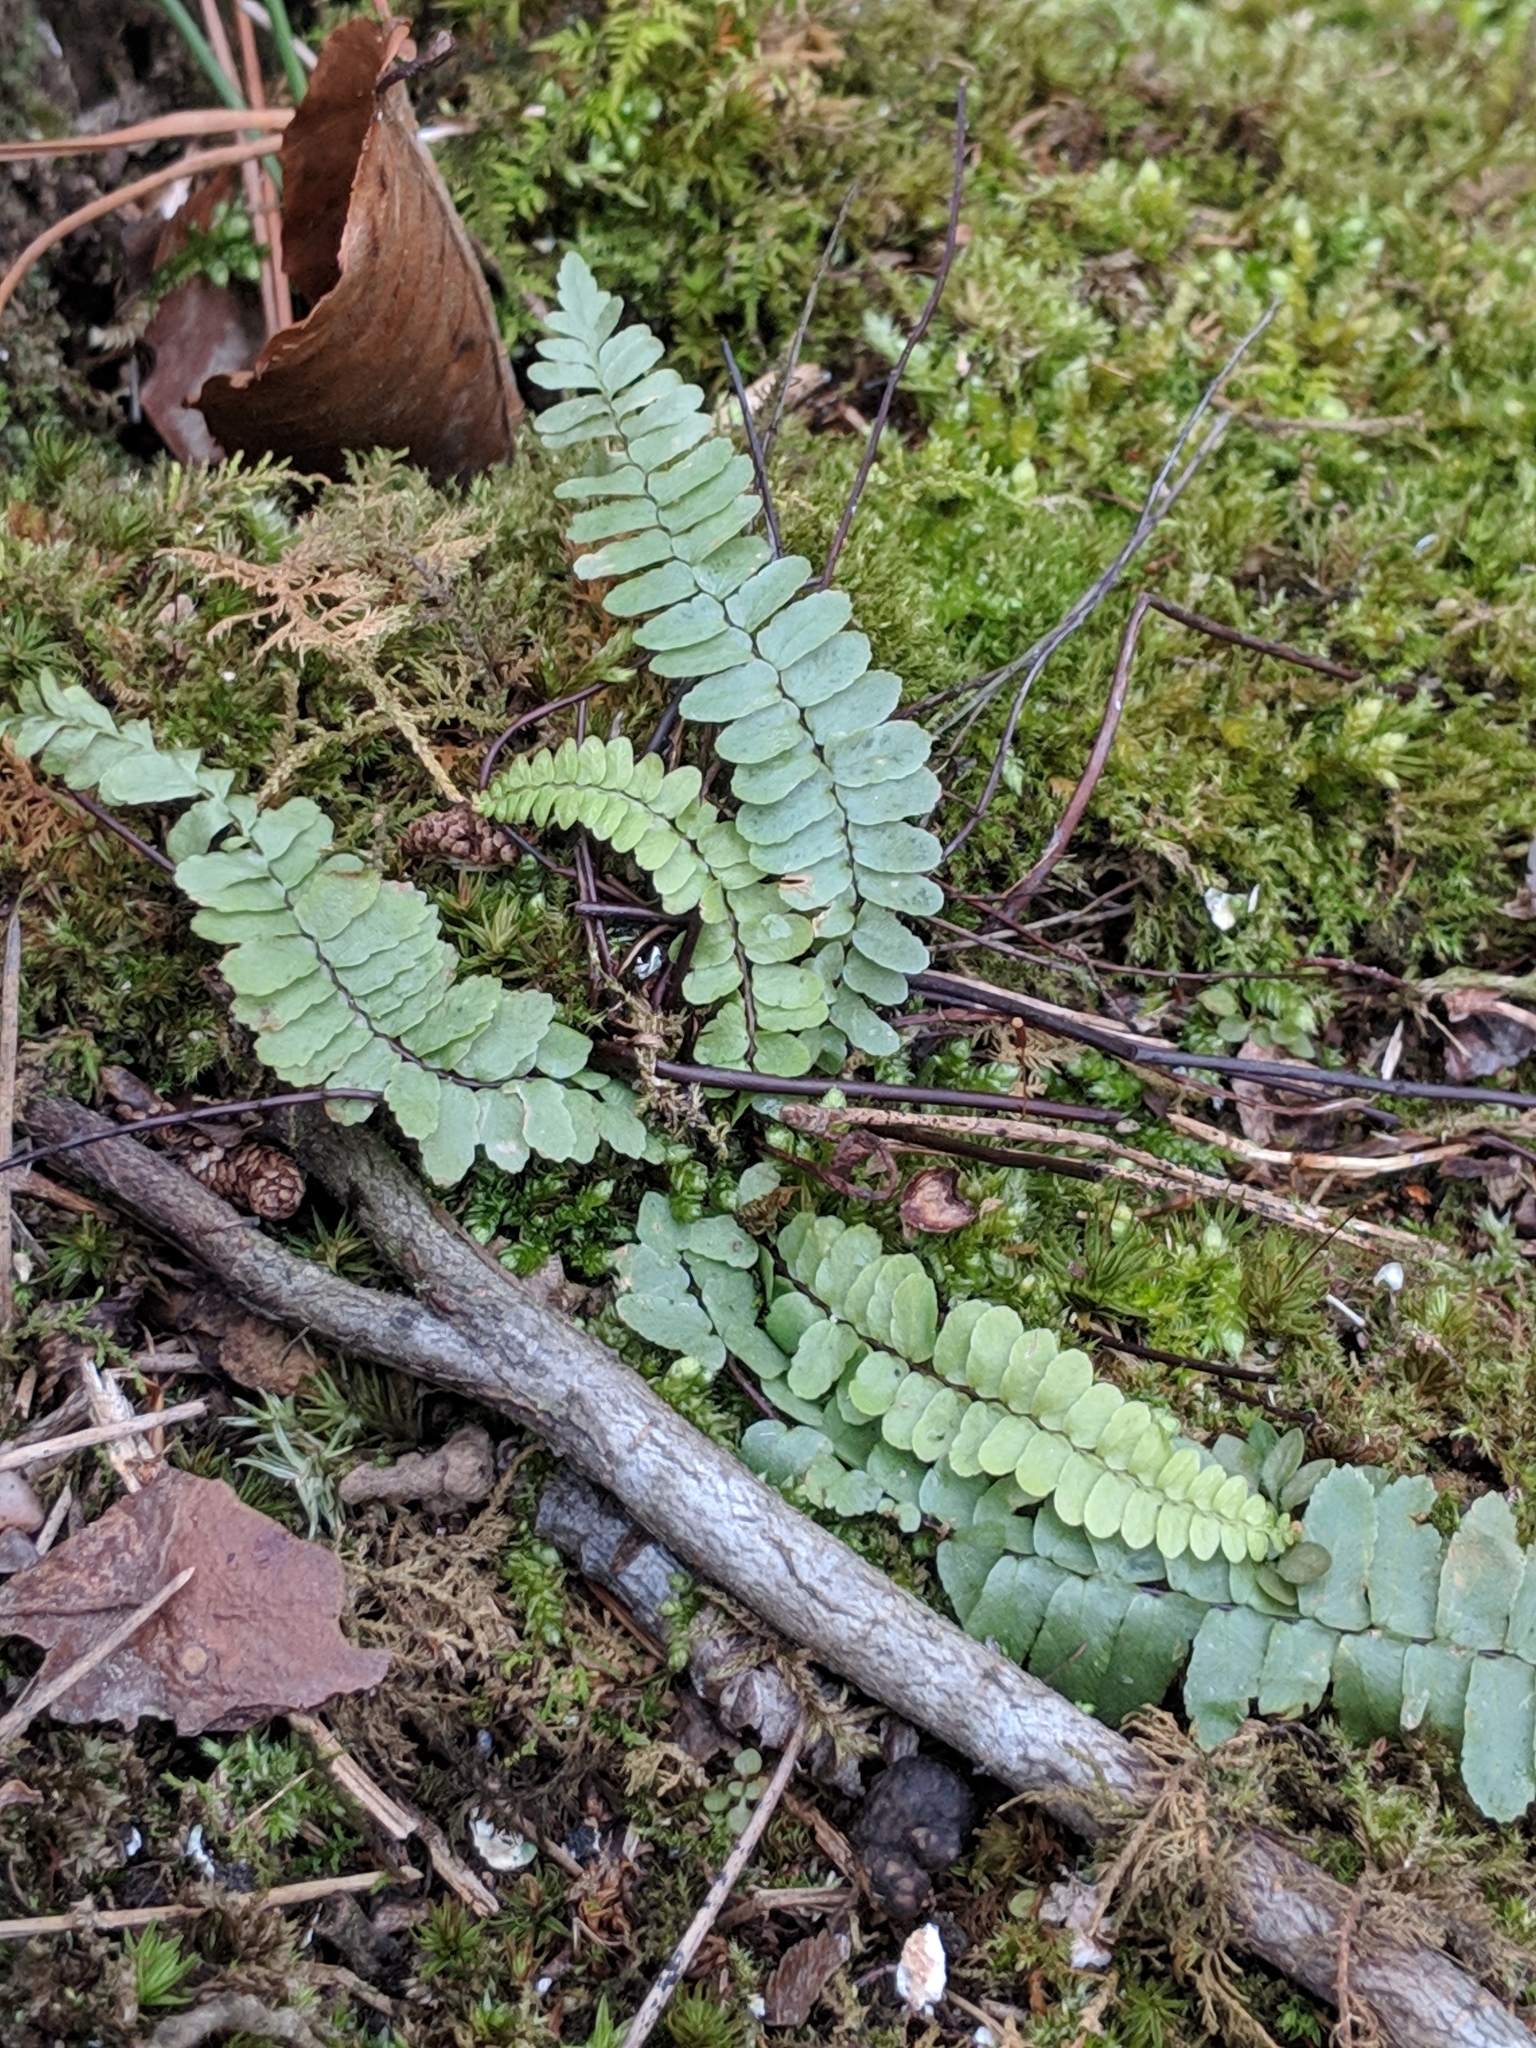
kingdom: Plantae
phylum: Tracheophyta
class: Polypodiopsida
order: Polypodiales
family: Aspleniaceae
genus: Asplenium
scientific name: Asplenium platyneuron
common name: Ebony spleenwort
